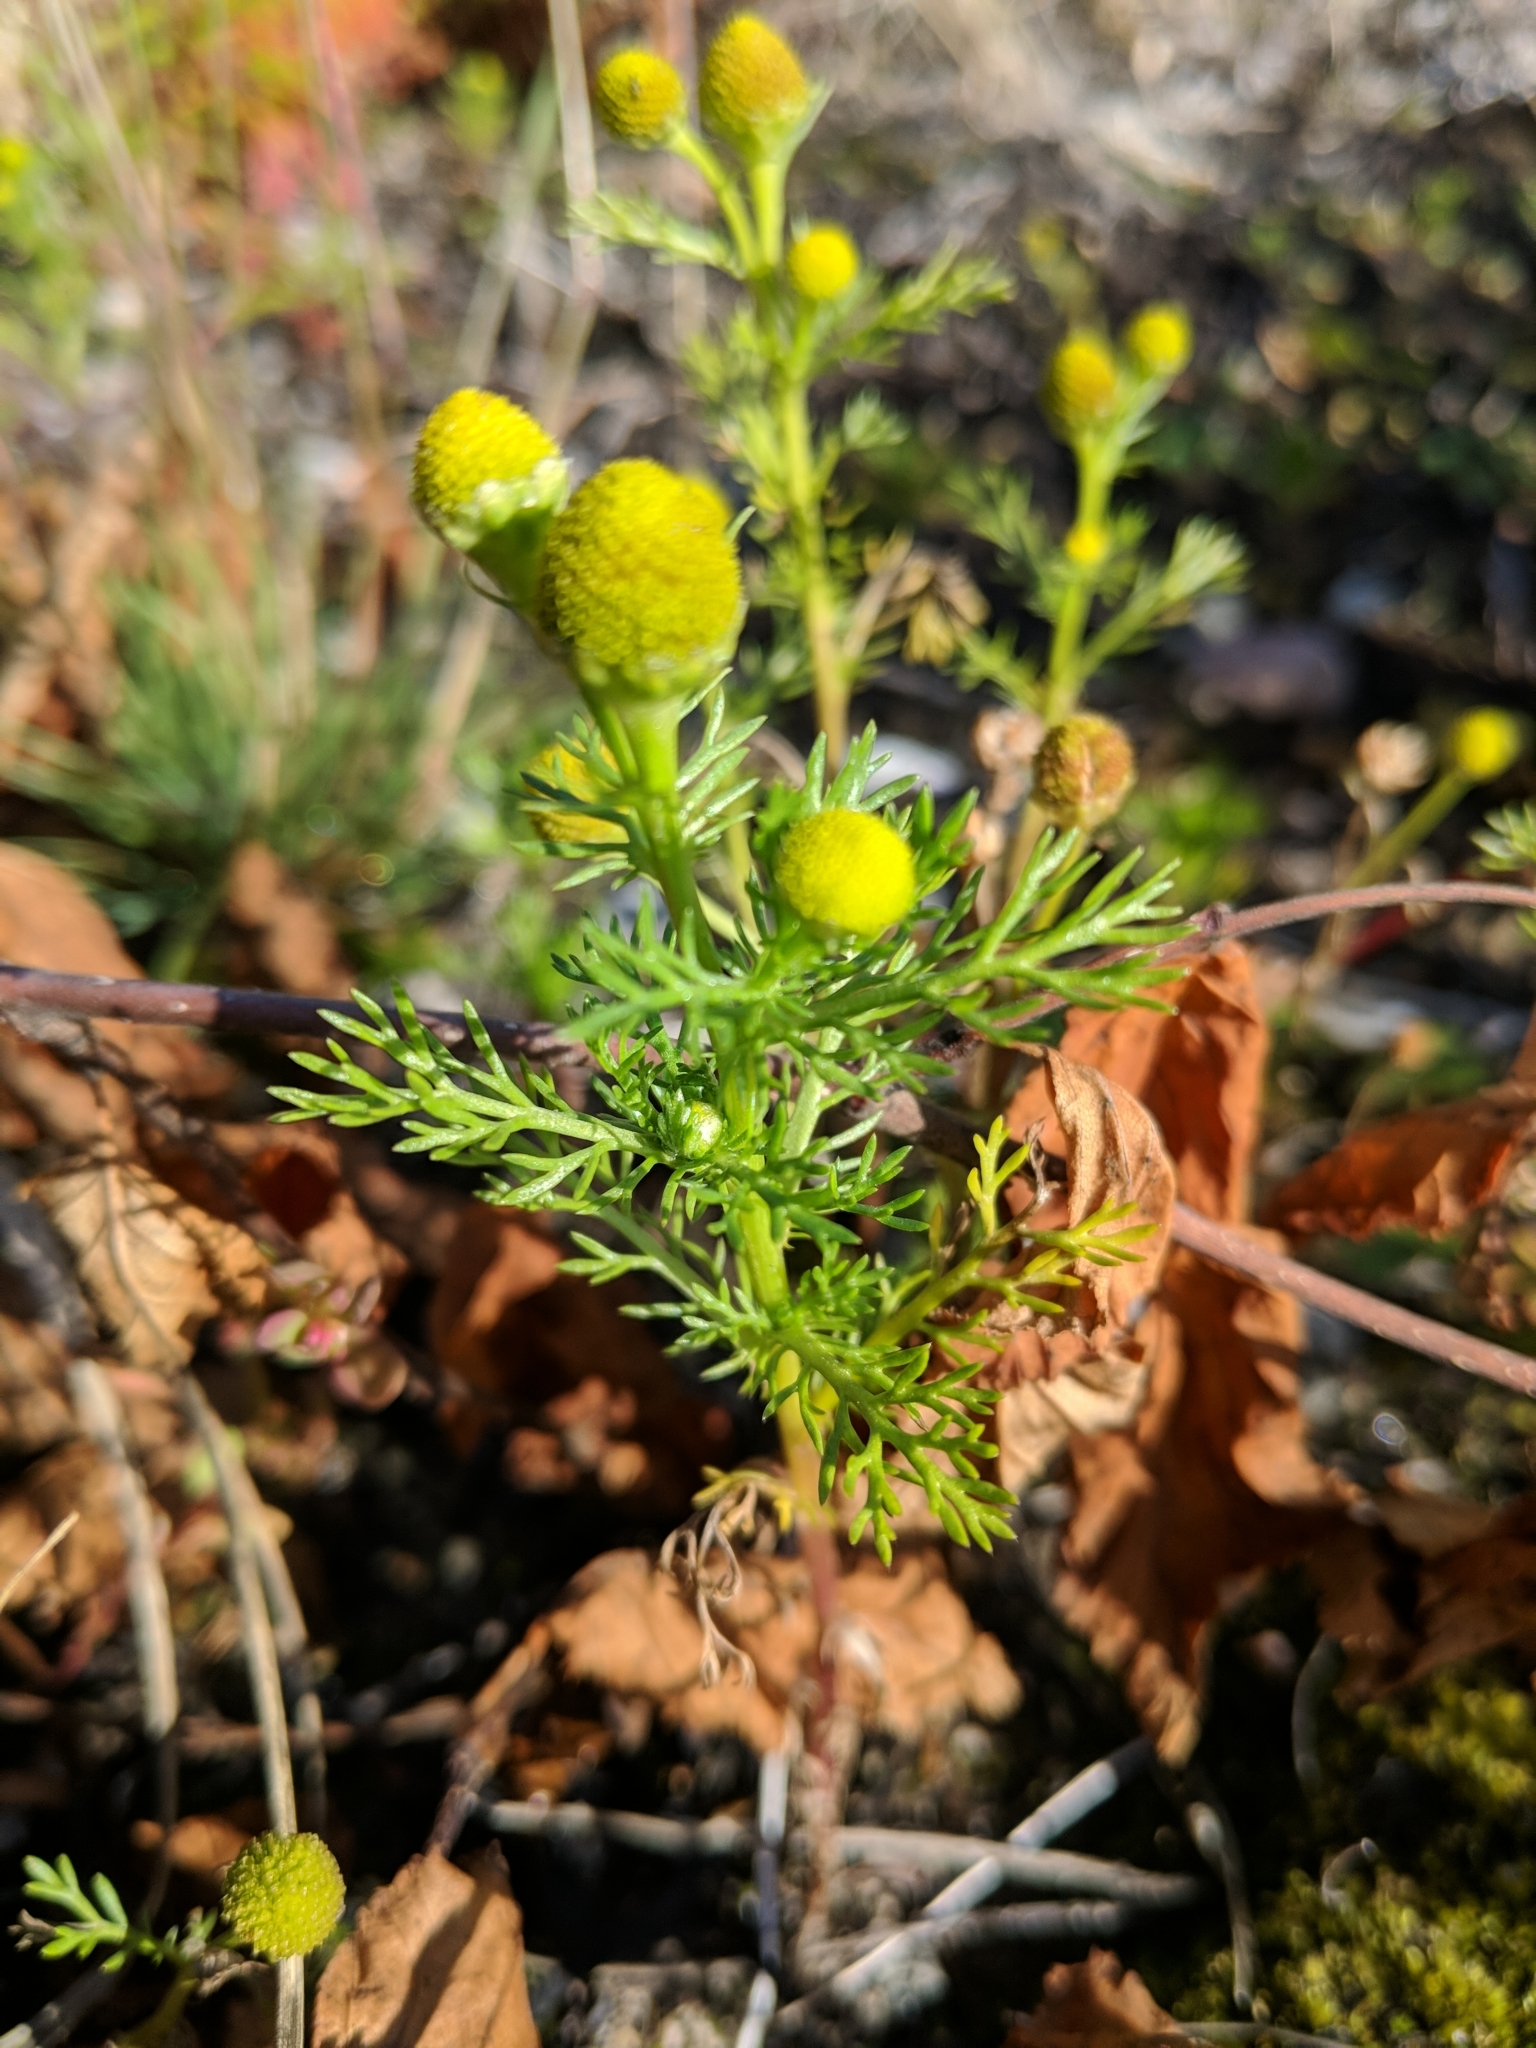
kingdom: Plantae
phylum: Tracheophyta
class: Magnoliopsida
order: Asterales
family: Asteraceae
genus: Matricaria
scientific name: Matricaria discoidea
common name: Disc mayweed
